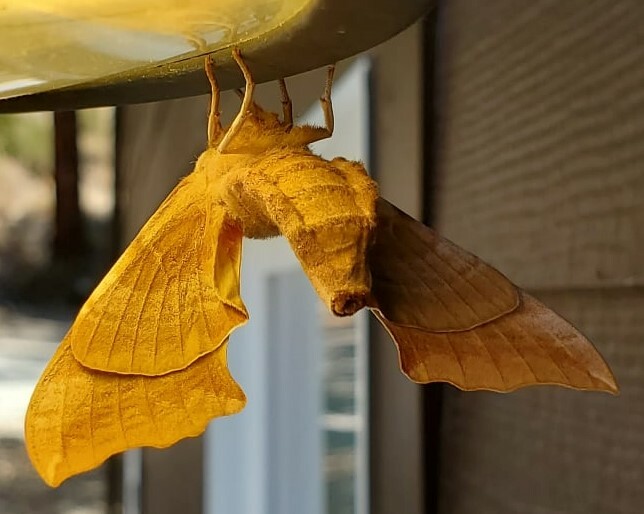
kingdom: Animalia
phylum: Arthropoda
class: Insecta
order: Lepidoptera
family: Sphingidae
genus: Smerinthus
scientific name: Smerinthus cerisyi
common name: Cerisy's sphinx moth
